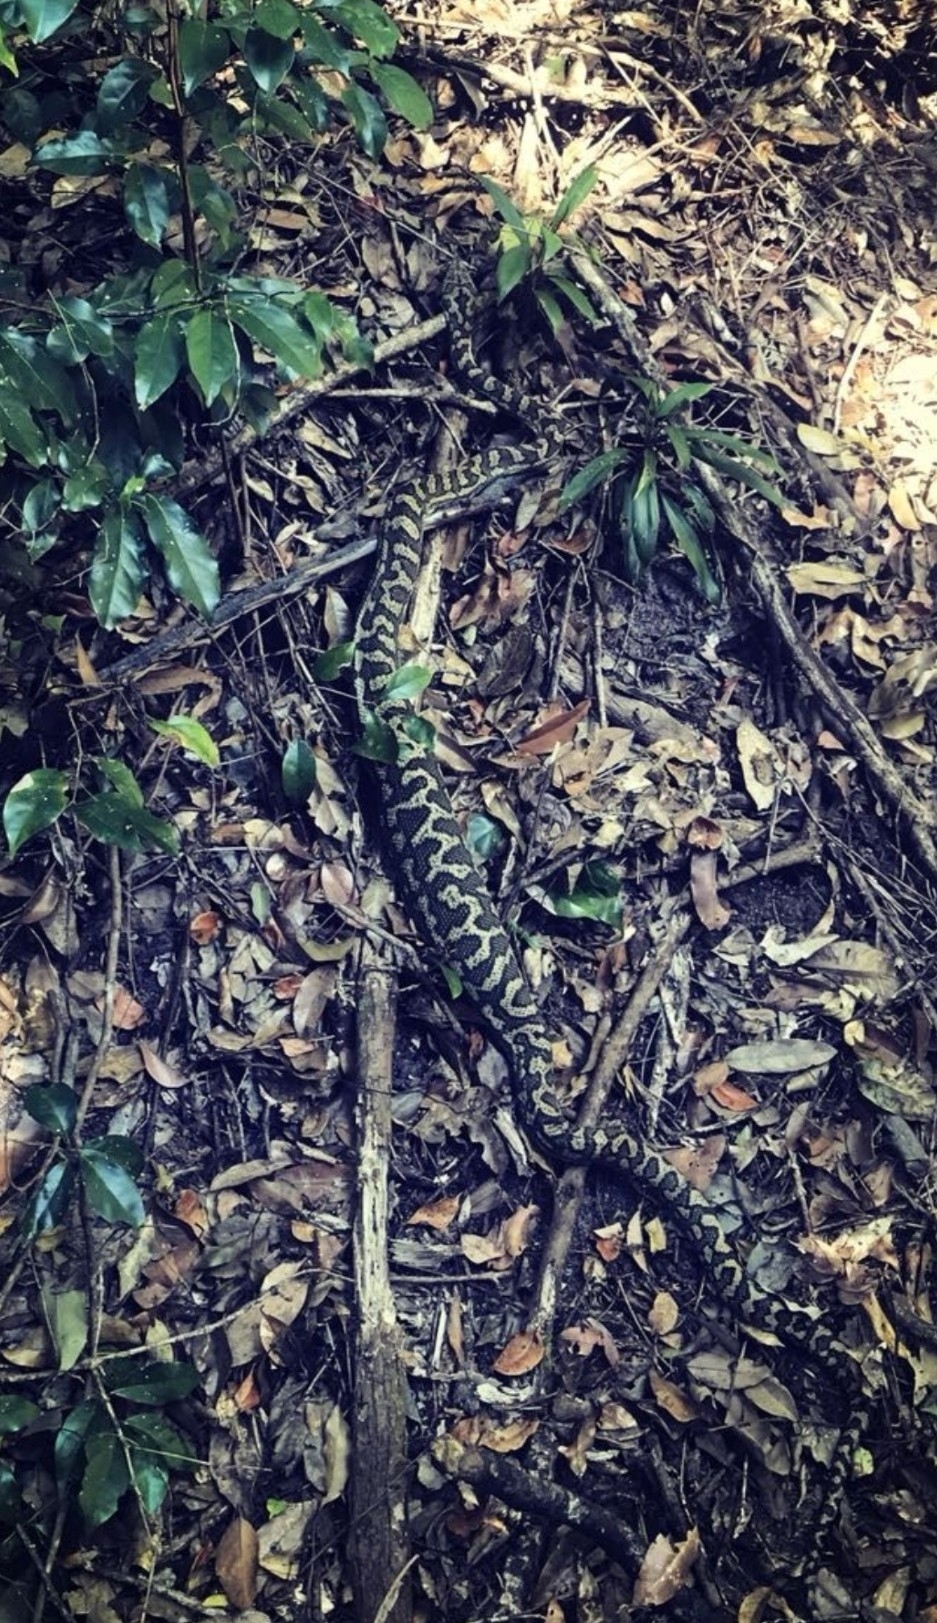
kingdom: Animalia
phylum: Chordata
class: Squamata
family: Pythonidae
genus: Morelia
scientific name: Morelia spilota
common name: Carpet python
